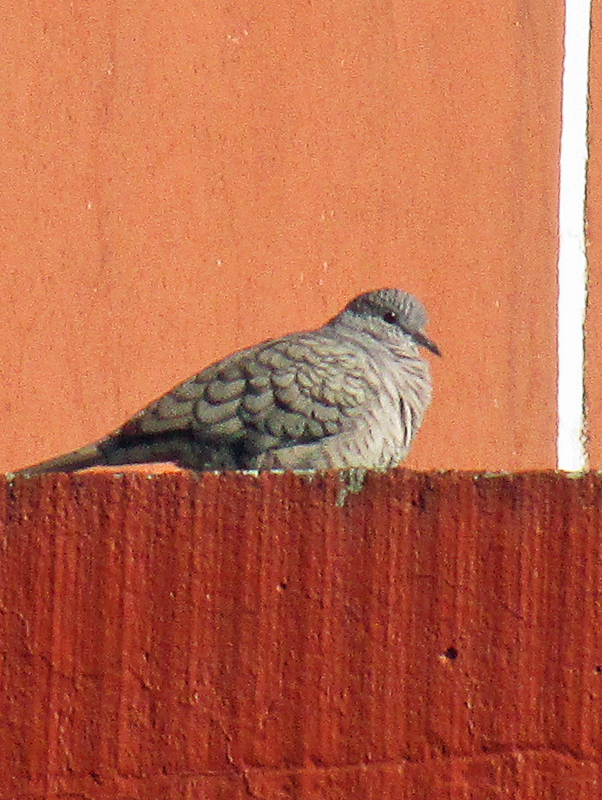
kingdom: Animalia
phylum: Chordata
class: Aves
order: Columbiformes
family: Columbidae
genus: Columbina
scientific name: Columbina inca
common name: Inca dove
